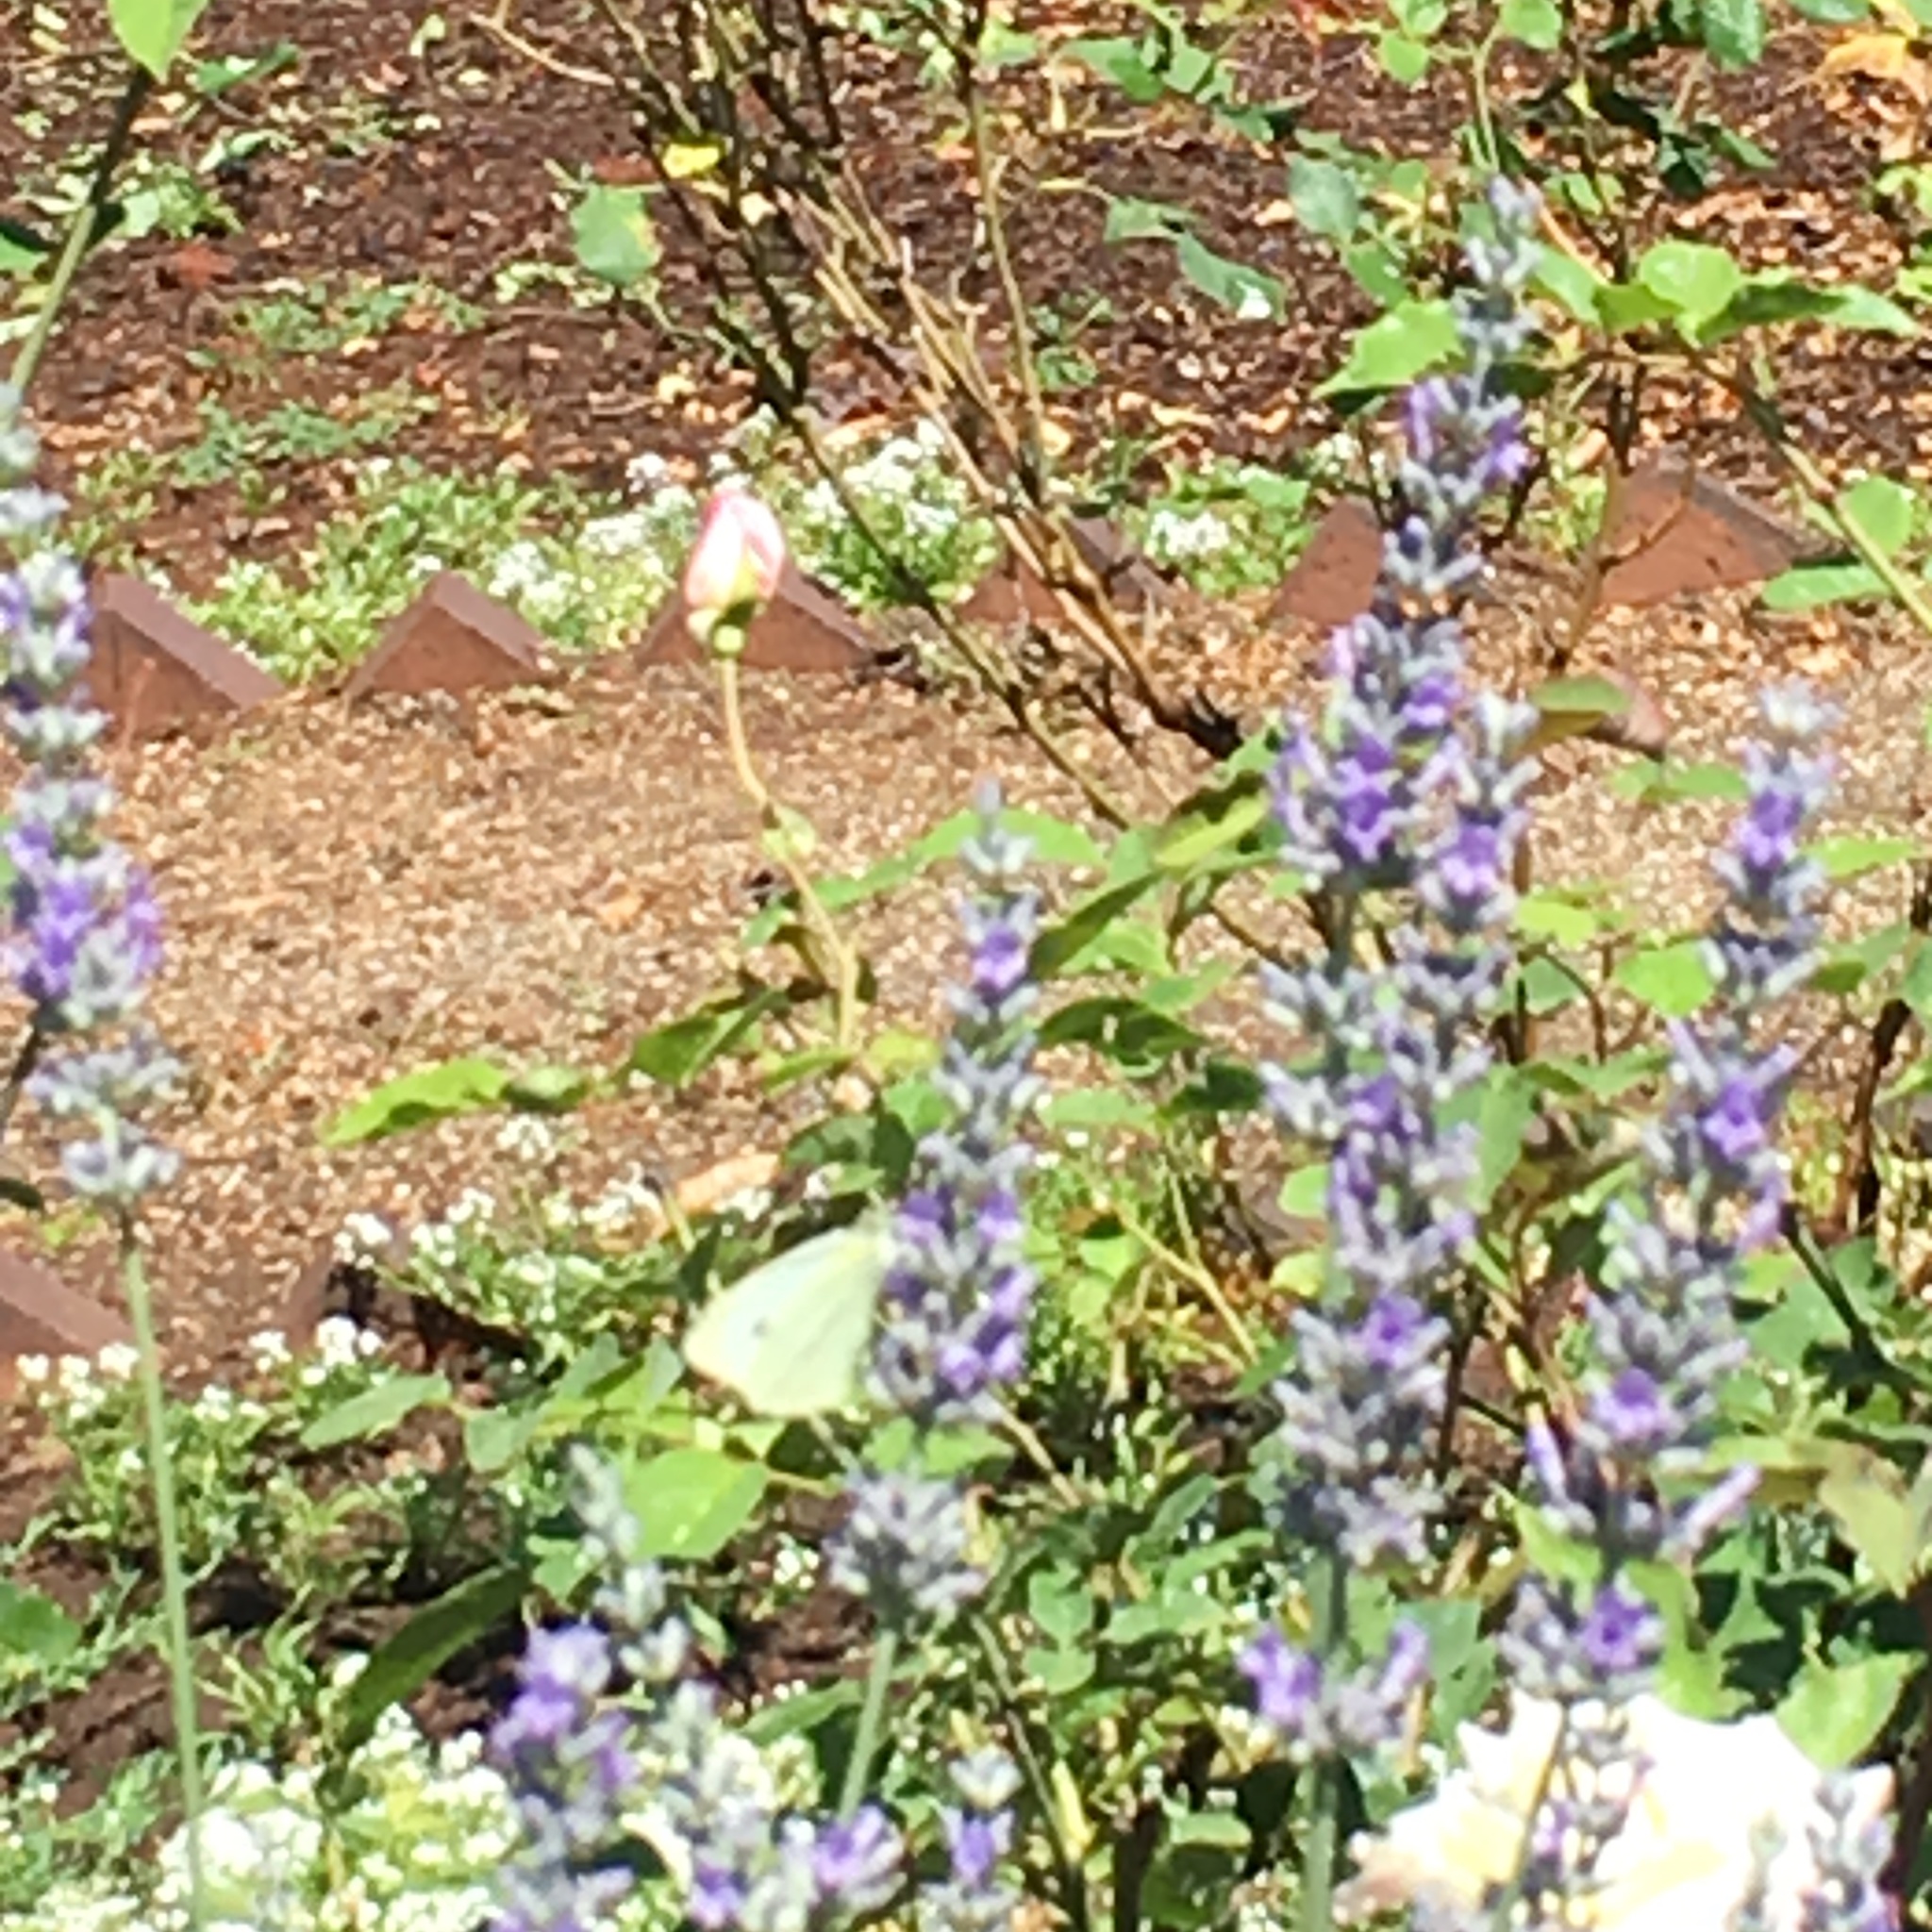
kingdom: Animalia
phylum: Arthropoda
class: Insecta
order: Lepidoptera
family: Pieridae
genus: Pieris
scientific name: Pieris rapae
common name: Small white
